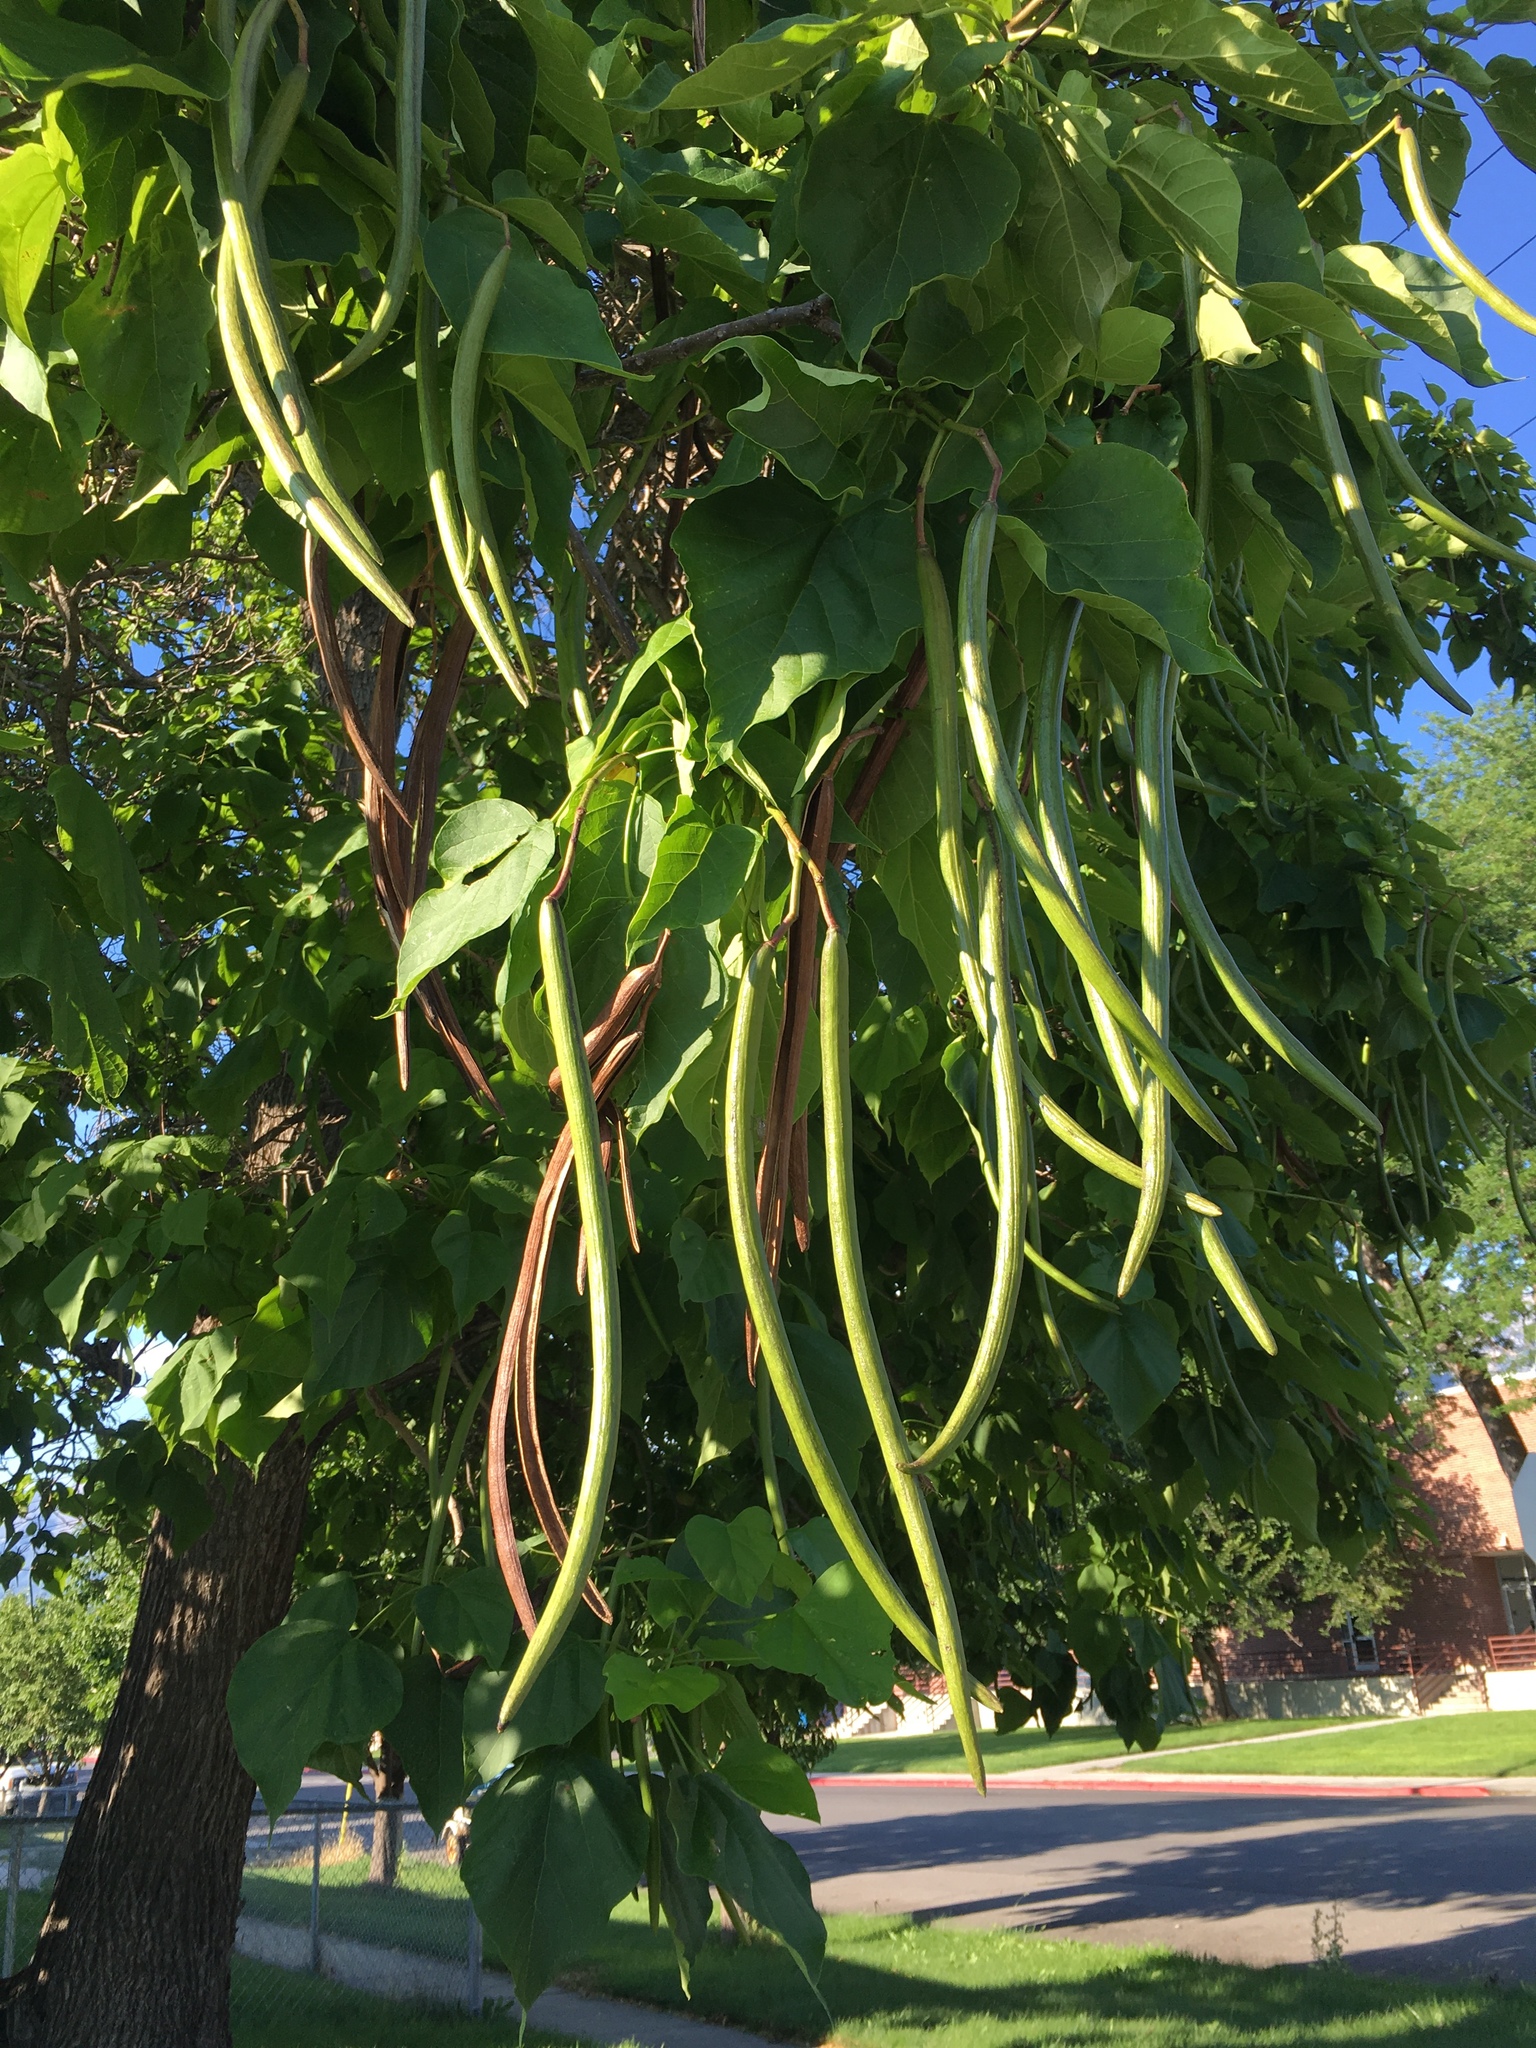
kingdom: Plantae
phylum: Tracheophyta
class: Magnoliopsida
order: Lamiales
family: Bignoniaceae
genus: Catalpa
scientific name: Catalpa bignonioides
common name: Southern catalpa
